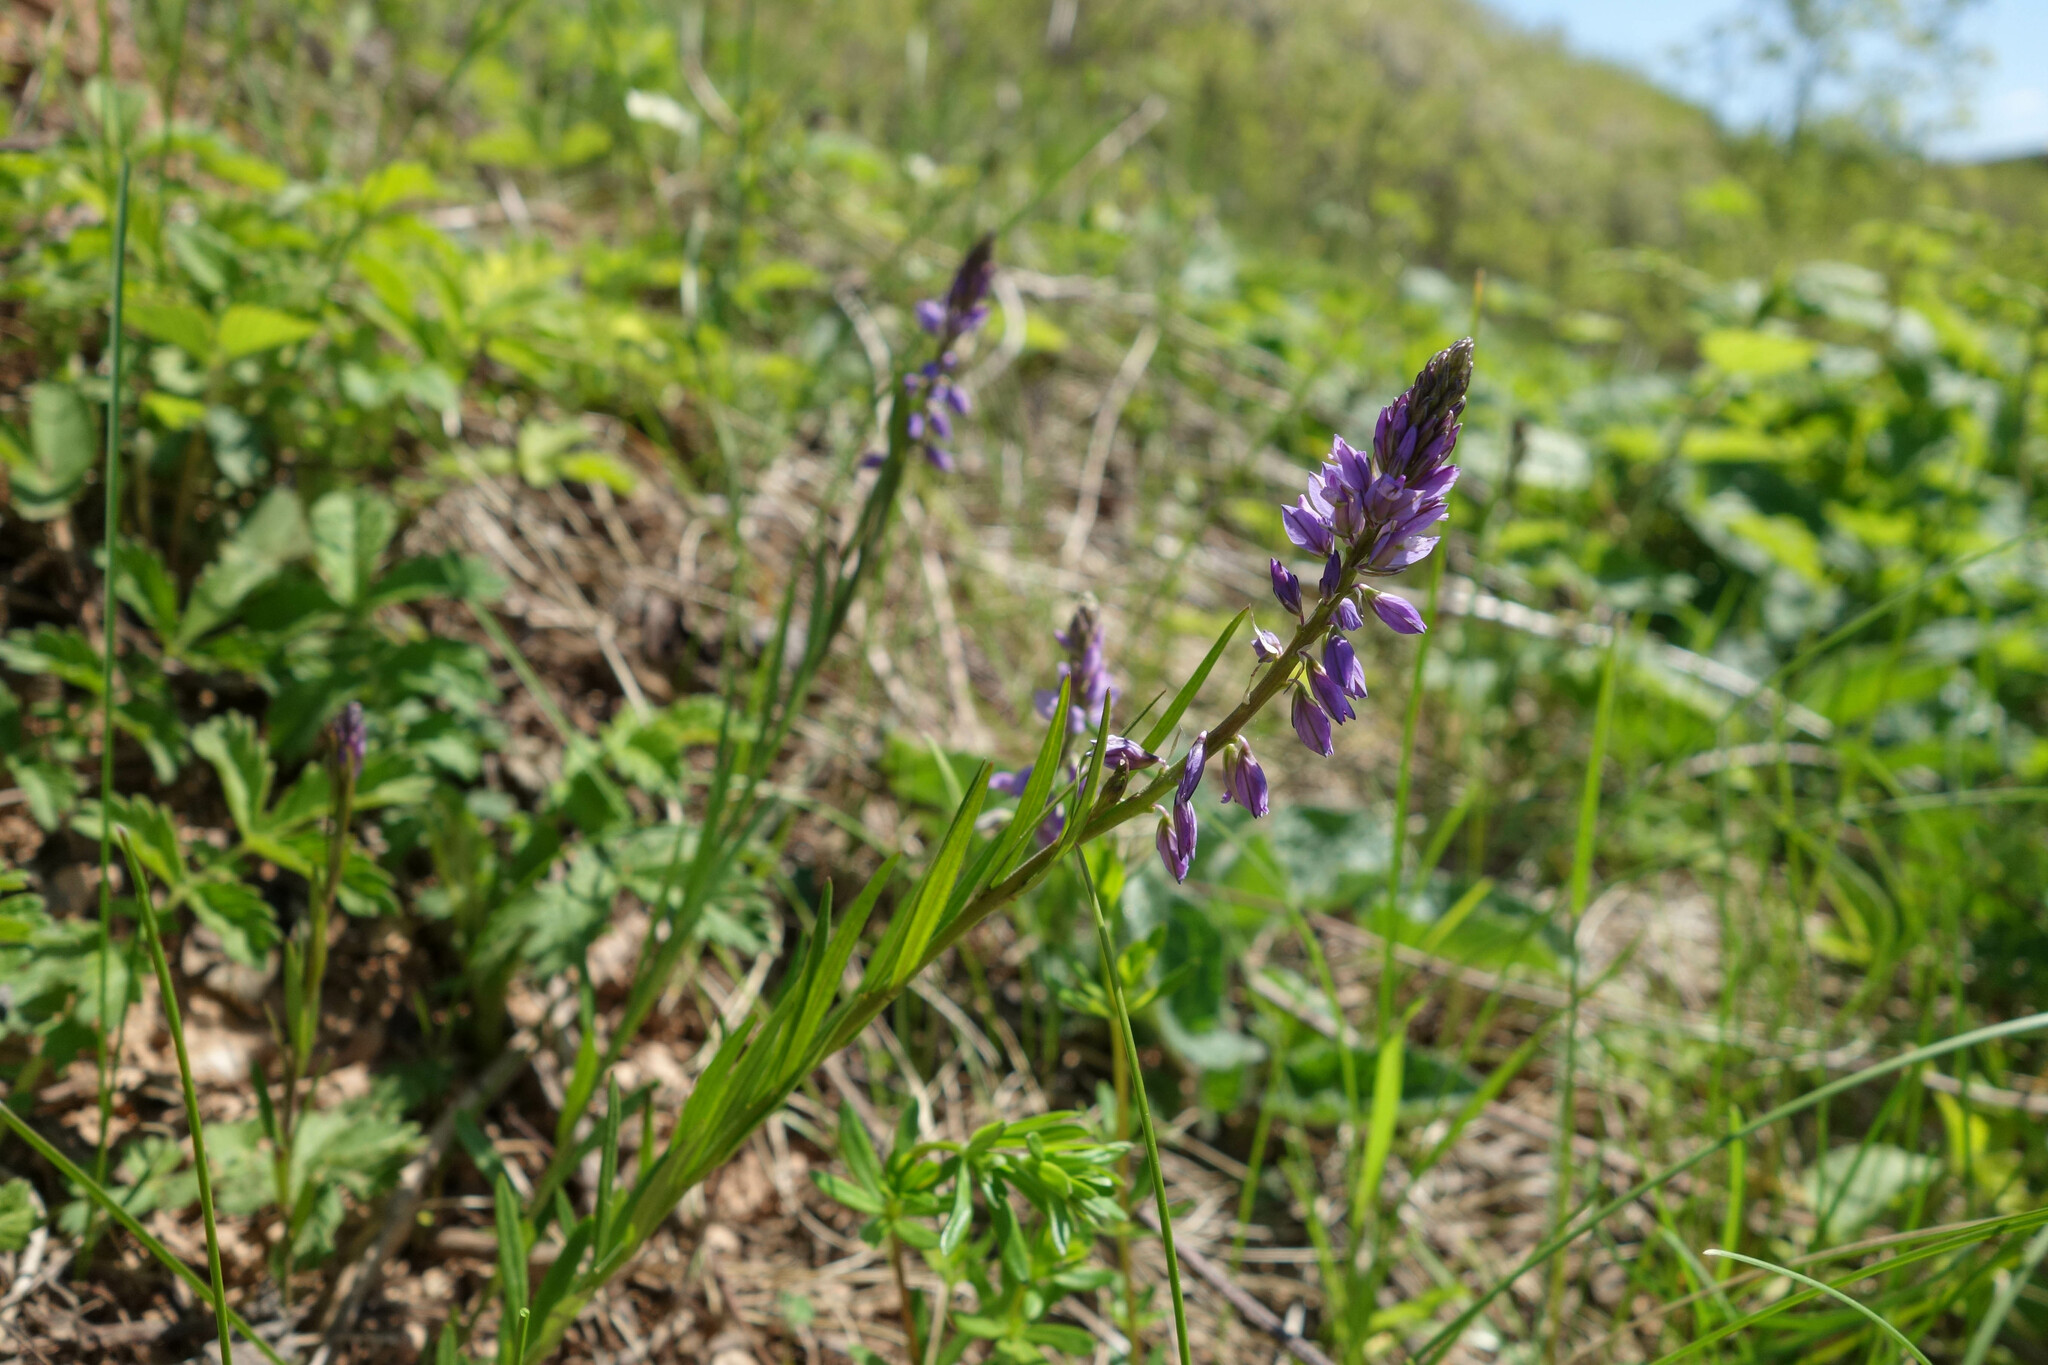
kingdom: Plantae
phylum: Tracheophyta
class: Magnoliopsida
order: Fabales
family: Polygalaceae
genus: Polygala
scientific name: Polygala comosa
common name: Tufted milkwort
